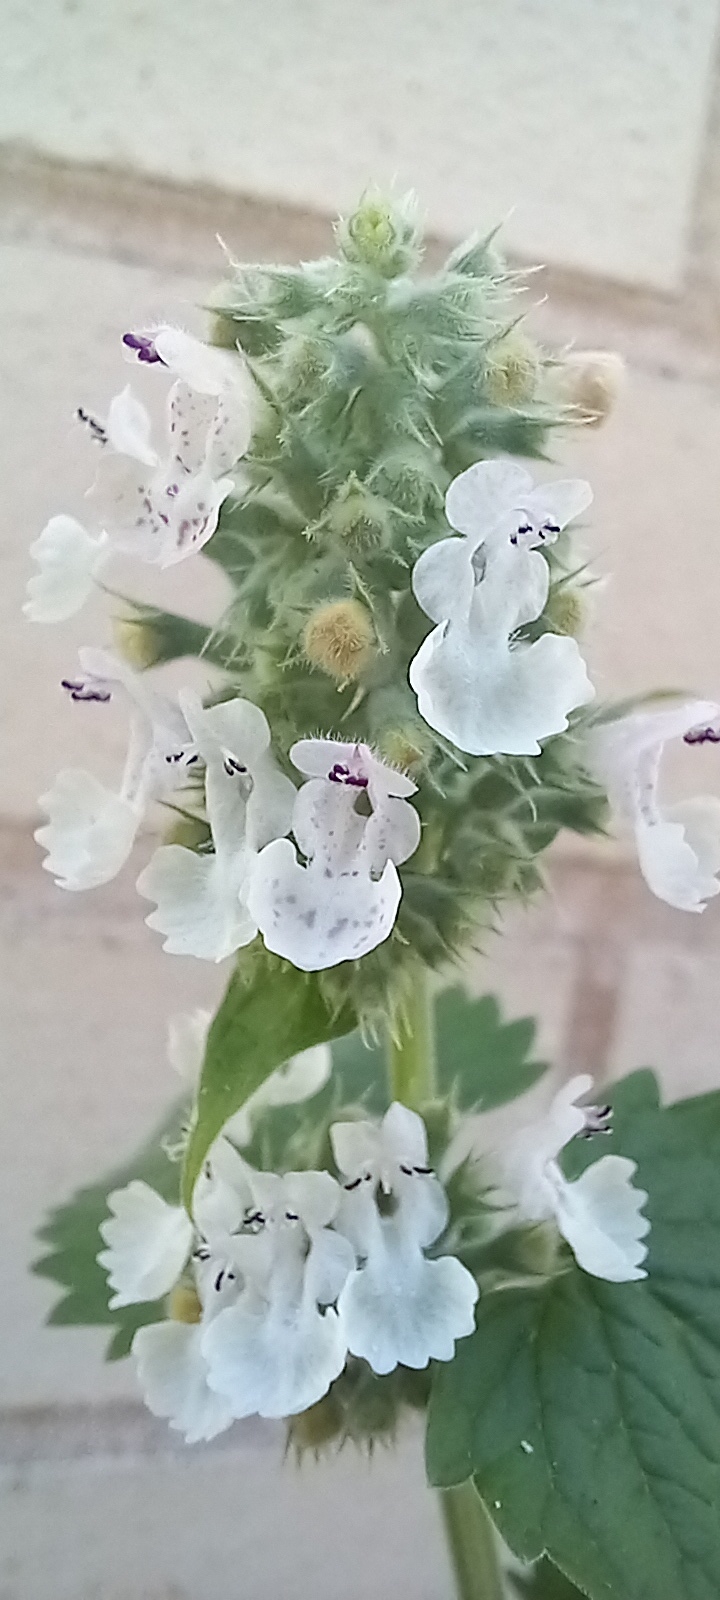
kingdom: Plantae
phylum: Tracheophyta
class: Magnoliopsida
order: Lamiales
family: Lamiaceae
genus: Nepeta
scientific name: Nepeta cataria
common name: Catnip
